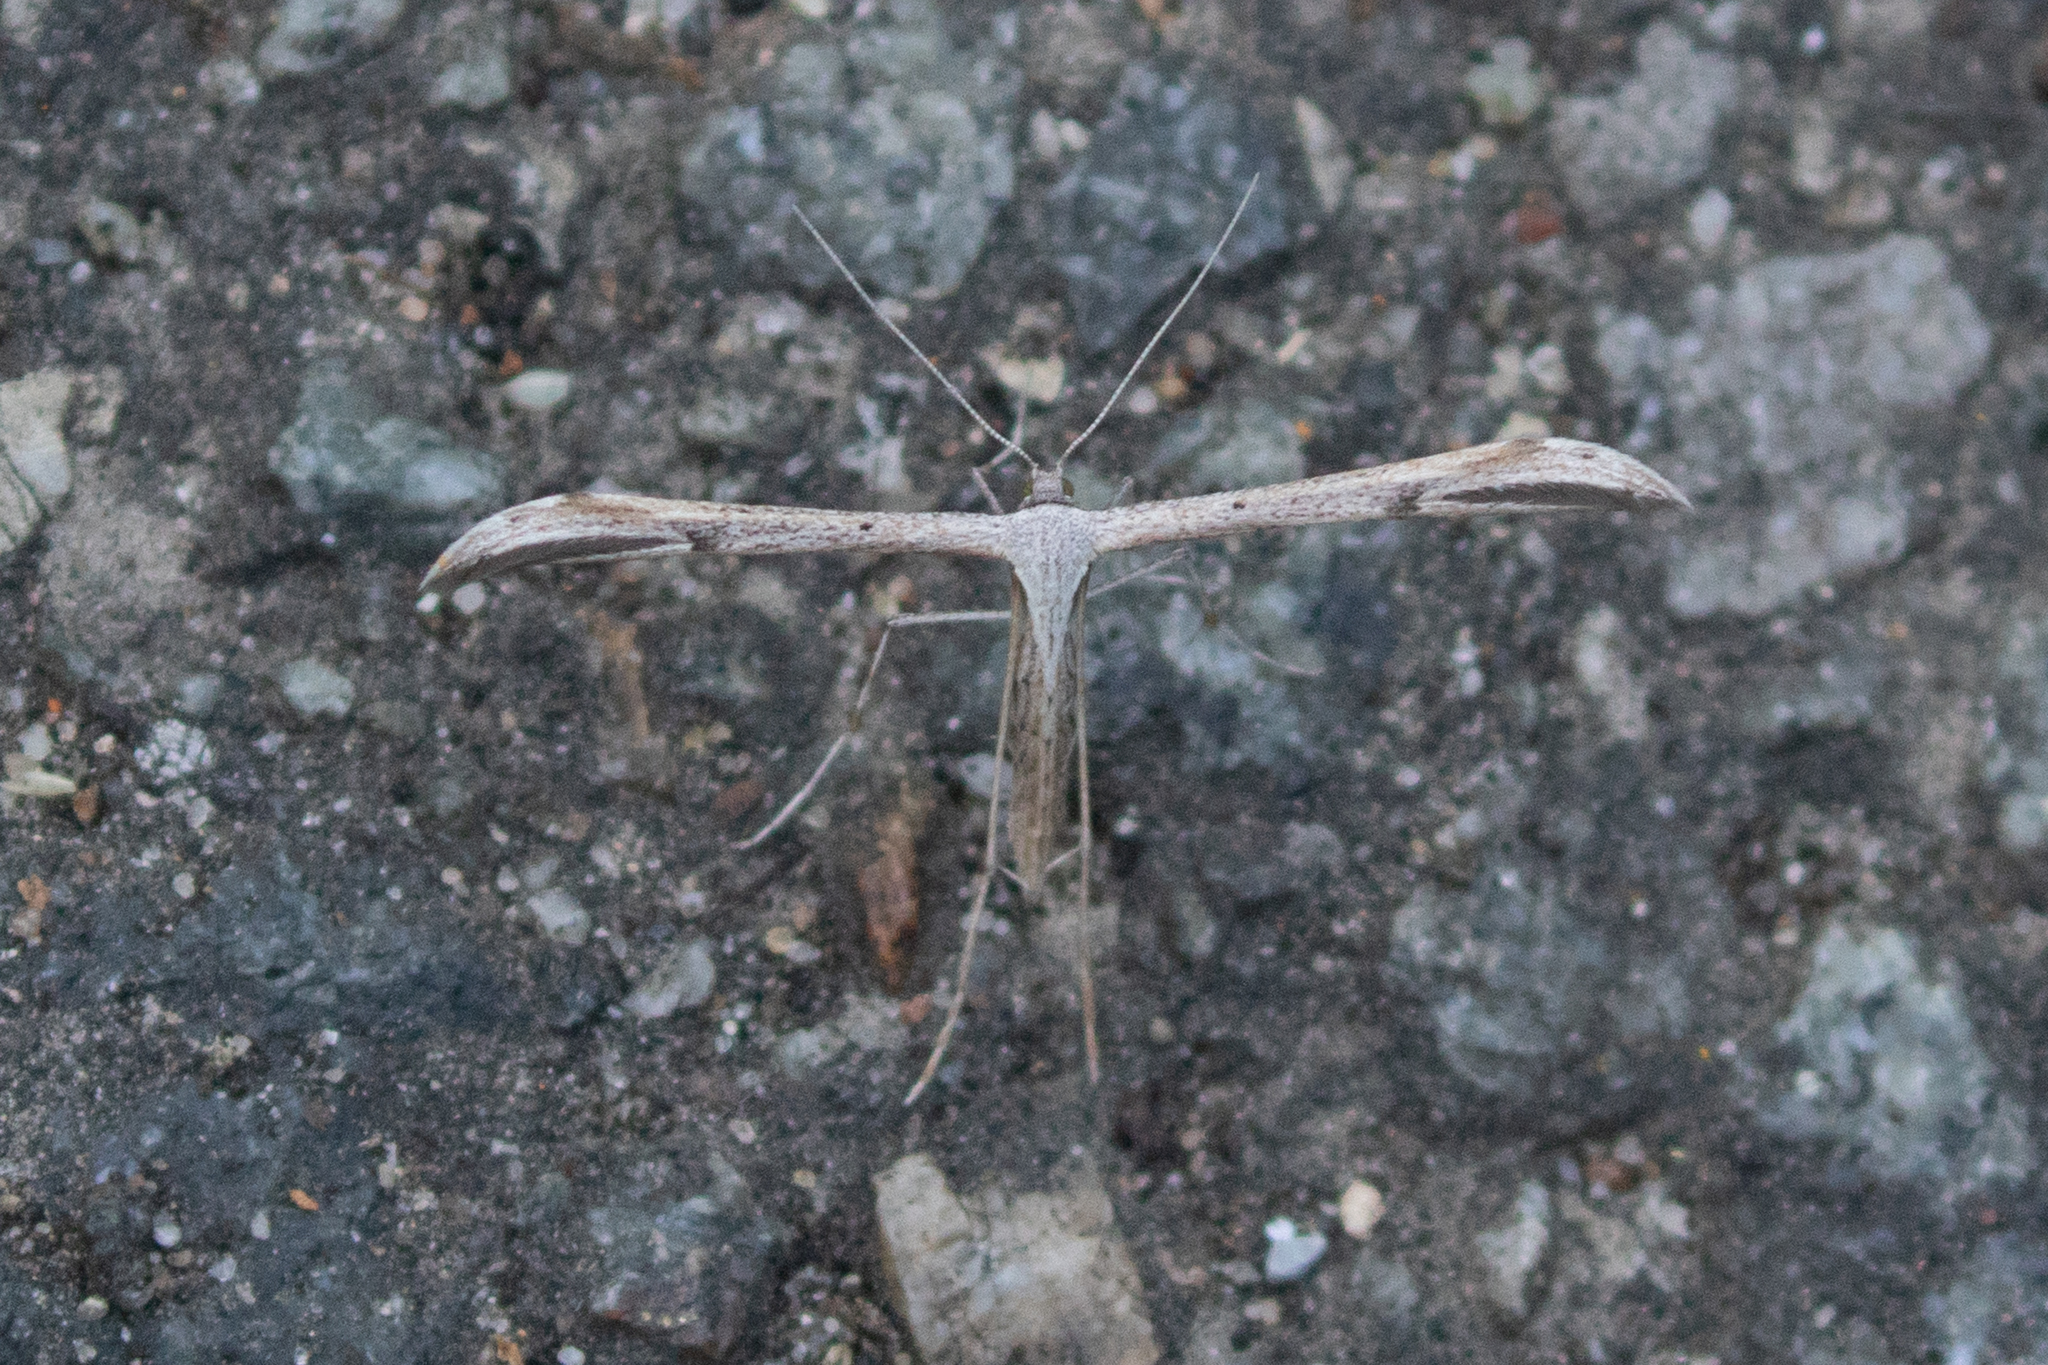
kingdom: Animalia
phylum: Arthropoda
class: Insecta
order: Lepidoptera
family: Pterophoridae
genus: Emmelina
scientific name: Emmelina monodactyla
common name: Common plume
